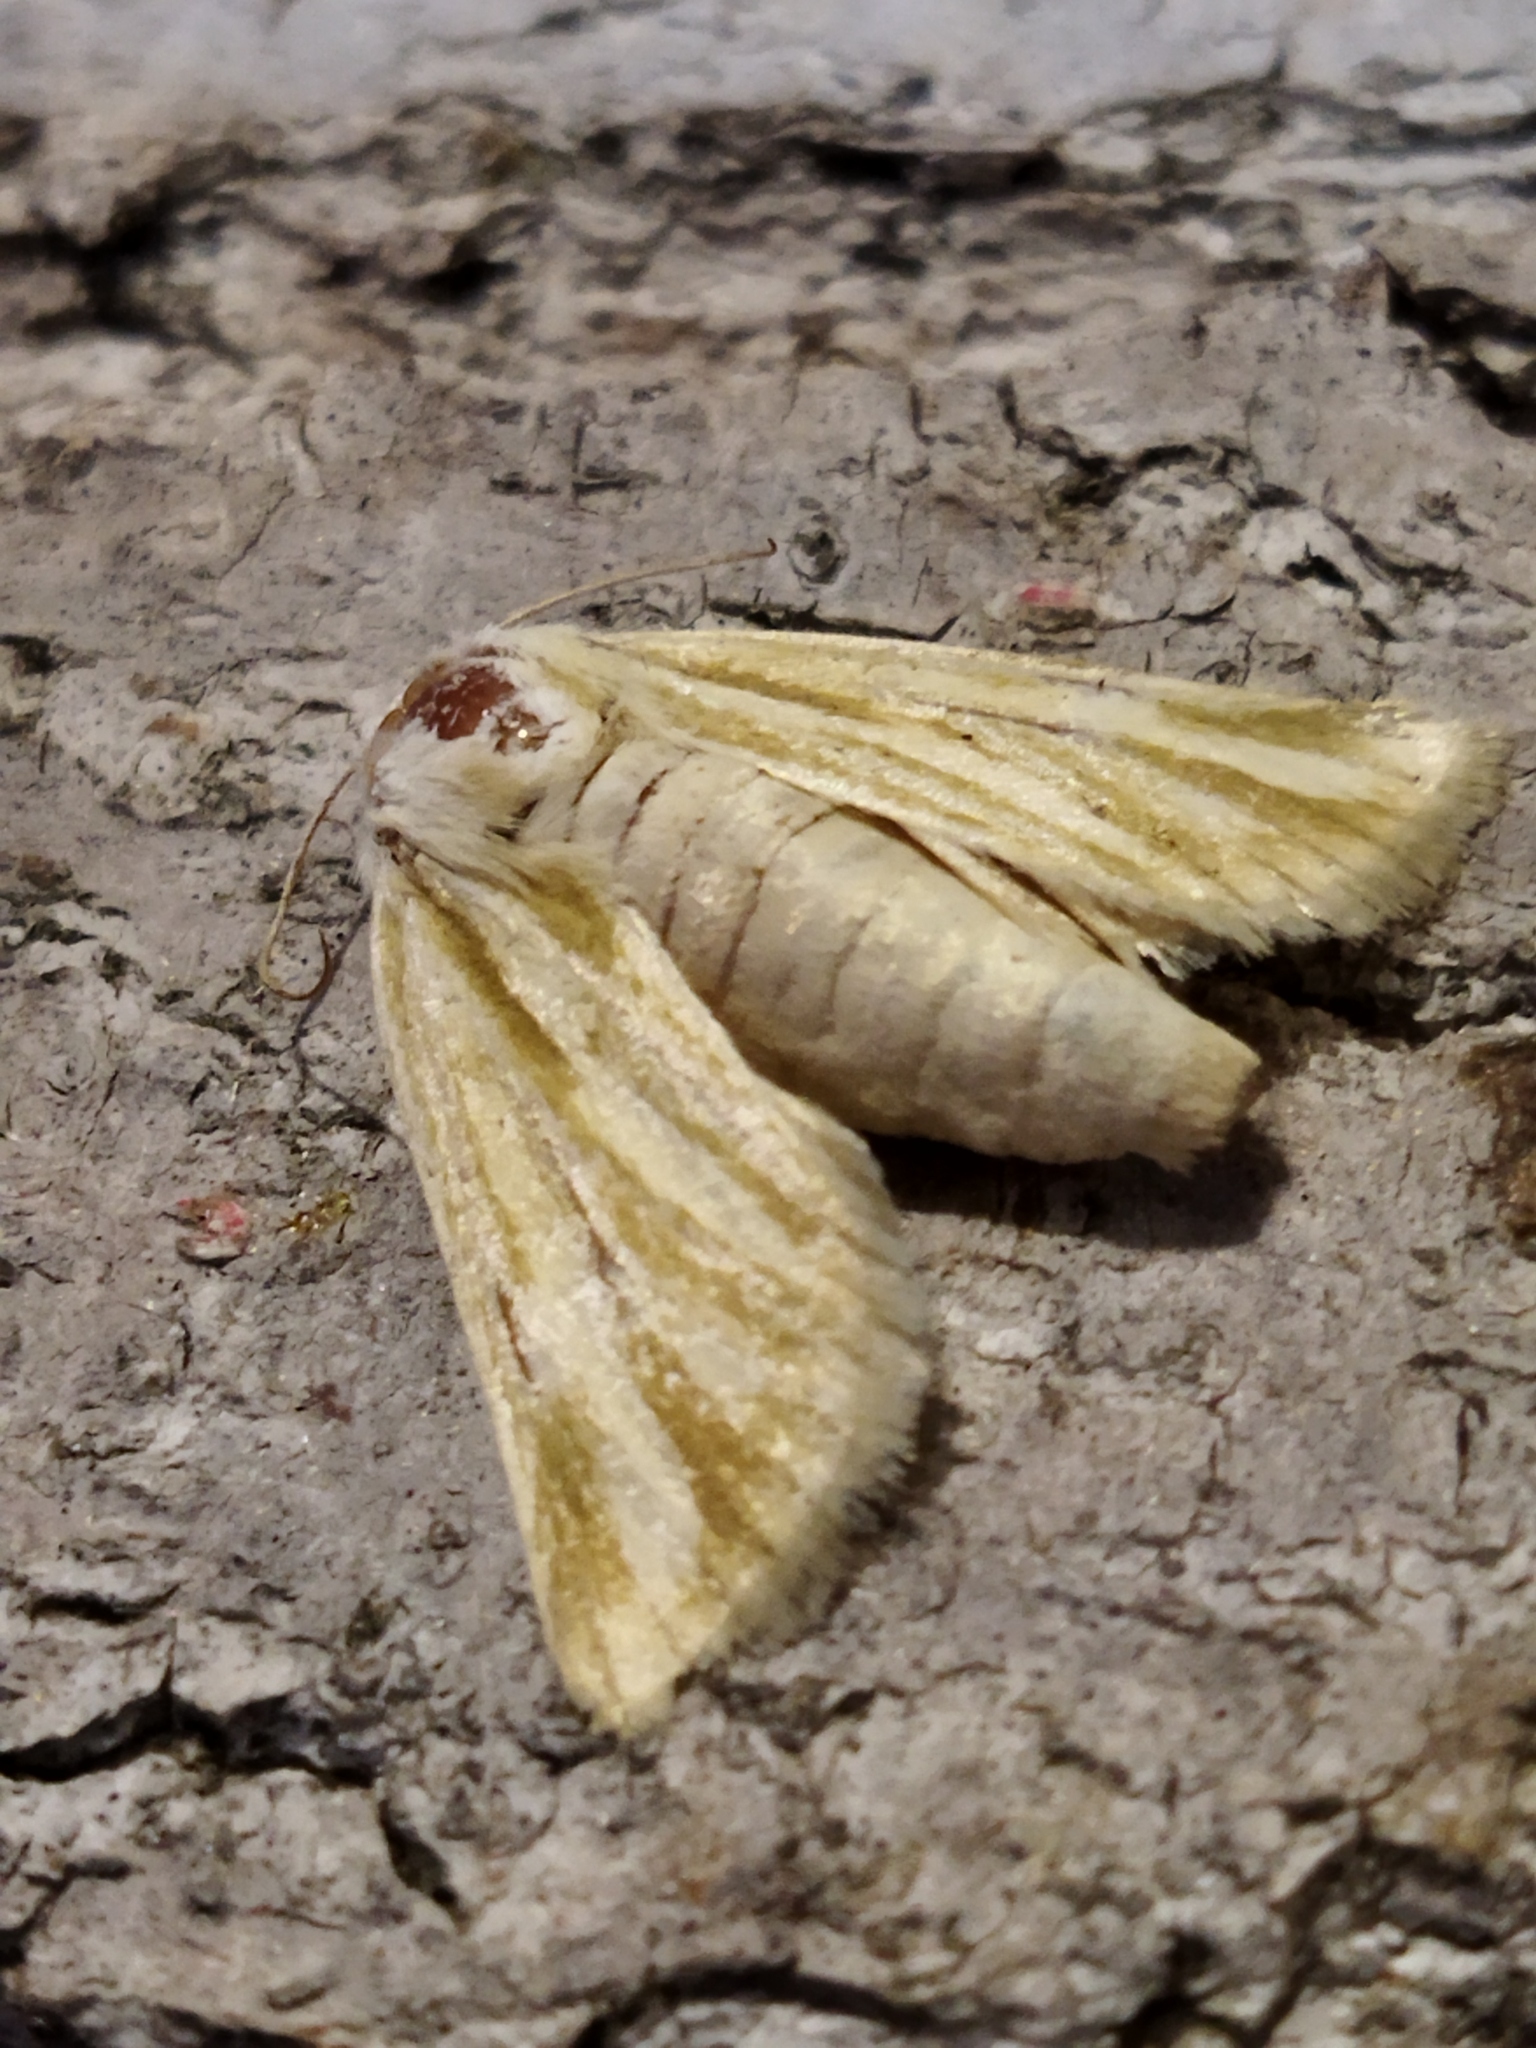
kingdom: Animalia
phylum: Arthropoda
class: Insecta
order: Lepidoptera
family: Noctuidae
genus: Oria
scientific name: Oria musculosa
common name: Brighton wainscot
